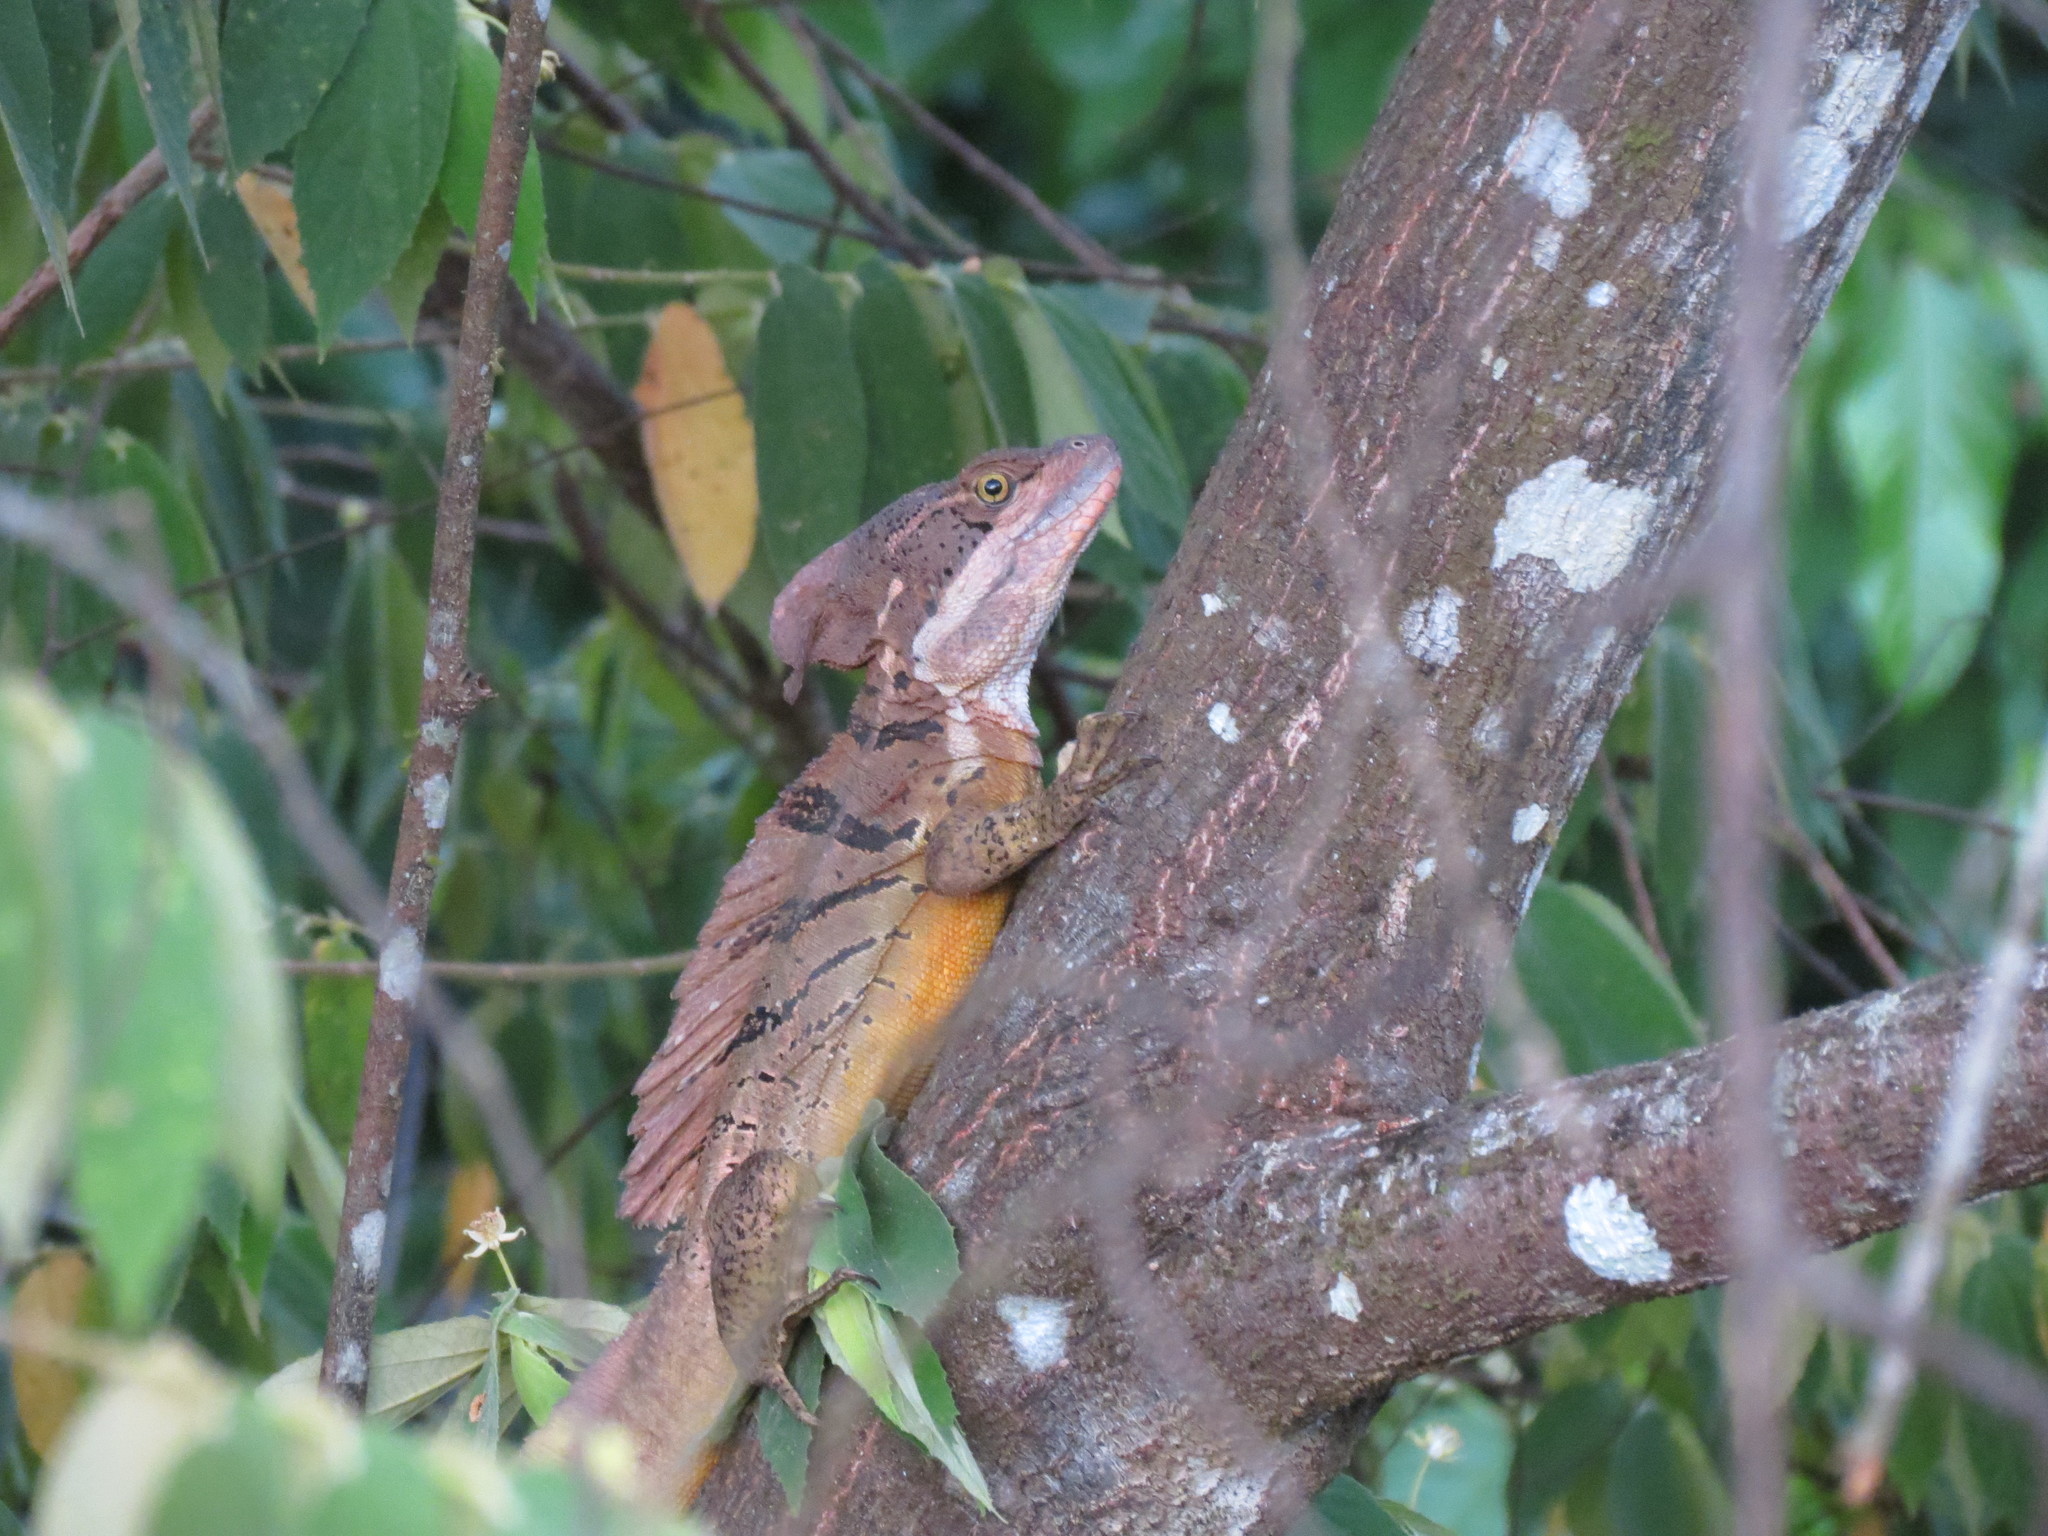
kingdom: Animalia
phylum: Chordata
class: Squamata
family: Corytophanidae
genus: Basiliscus
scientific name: Basiliscus basiliscus
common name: Common basilisk
